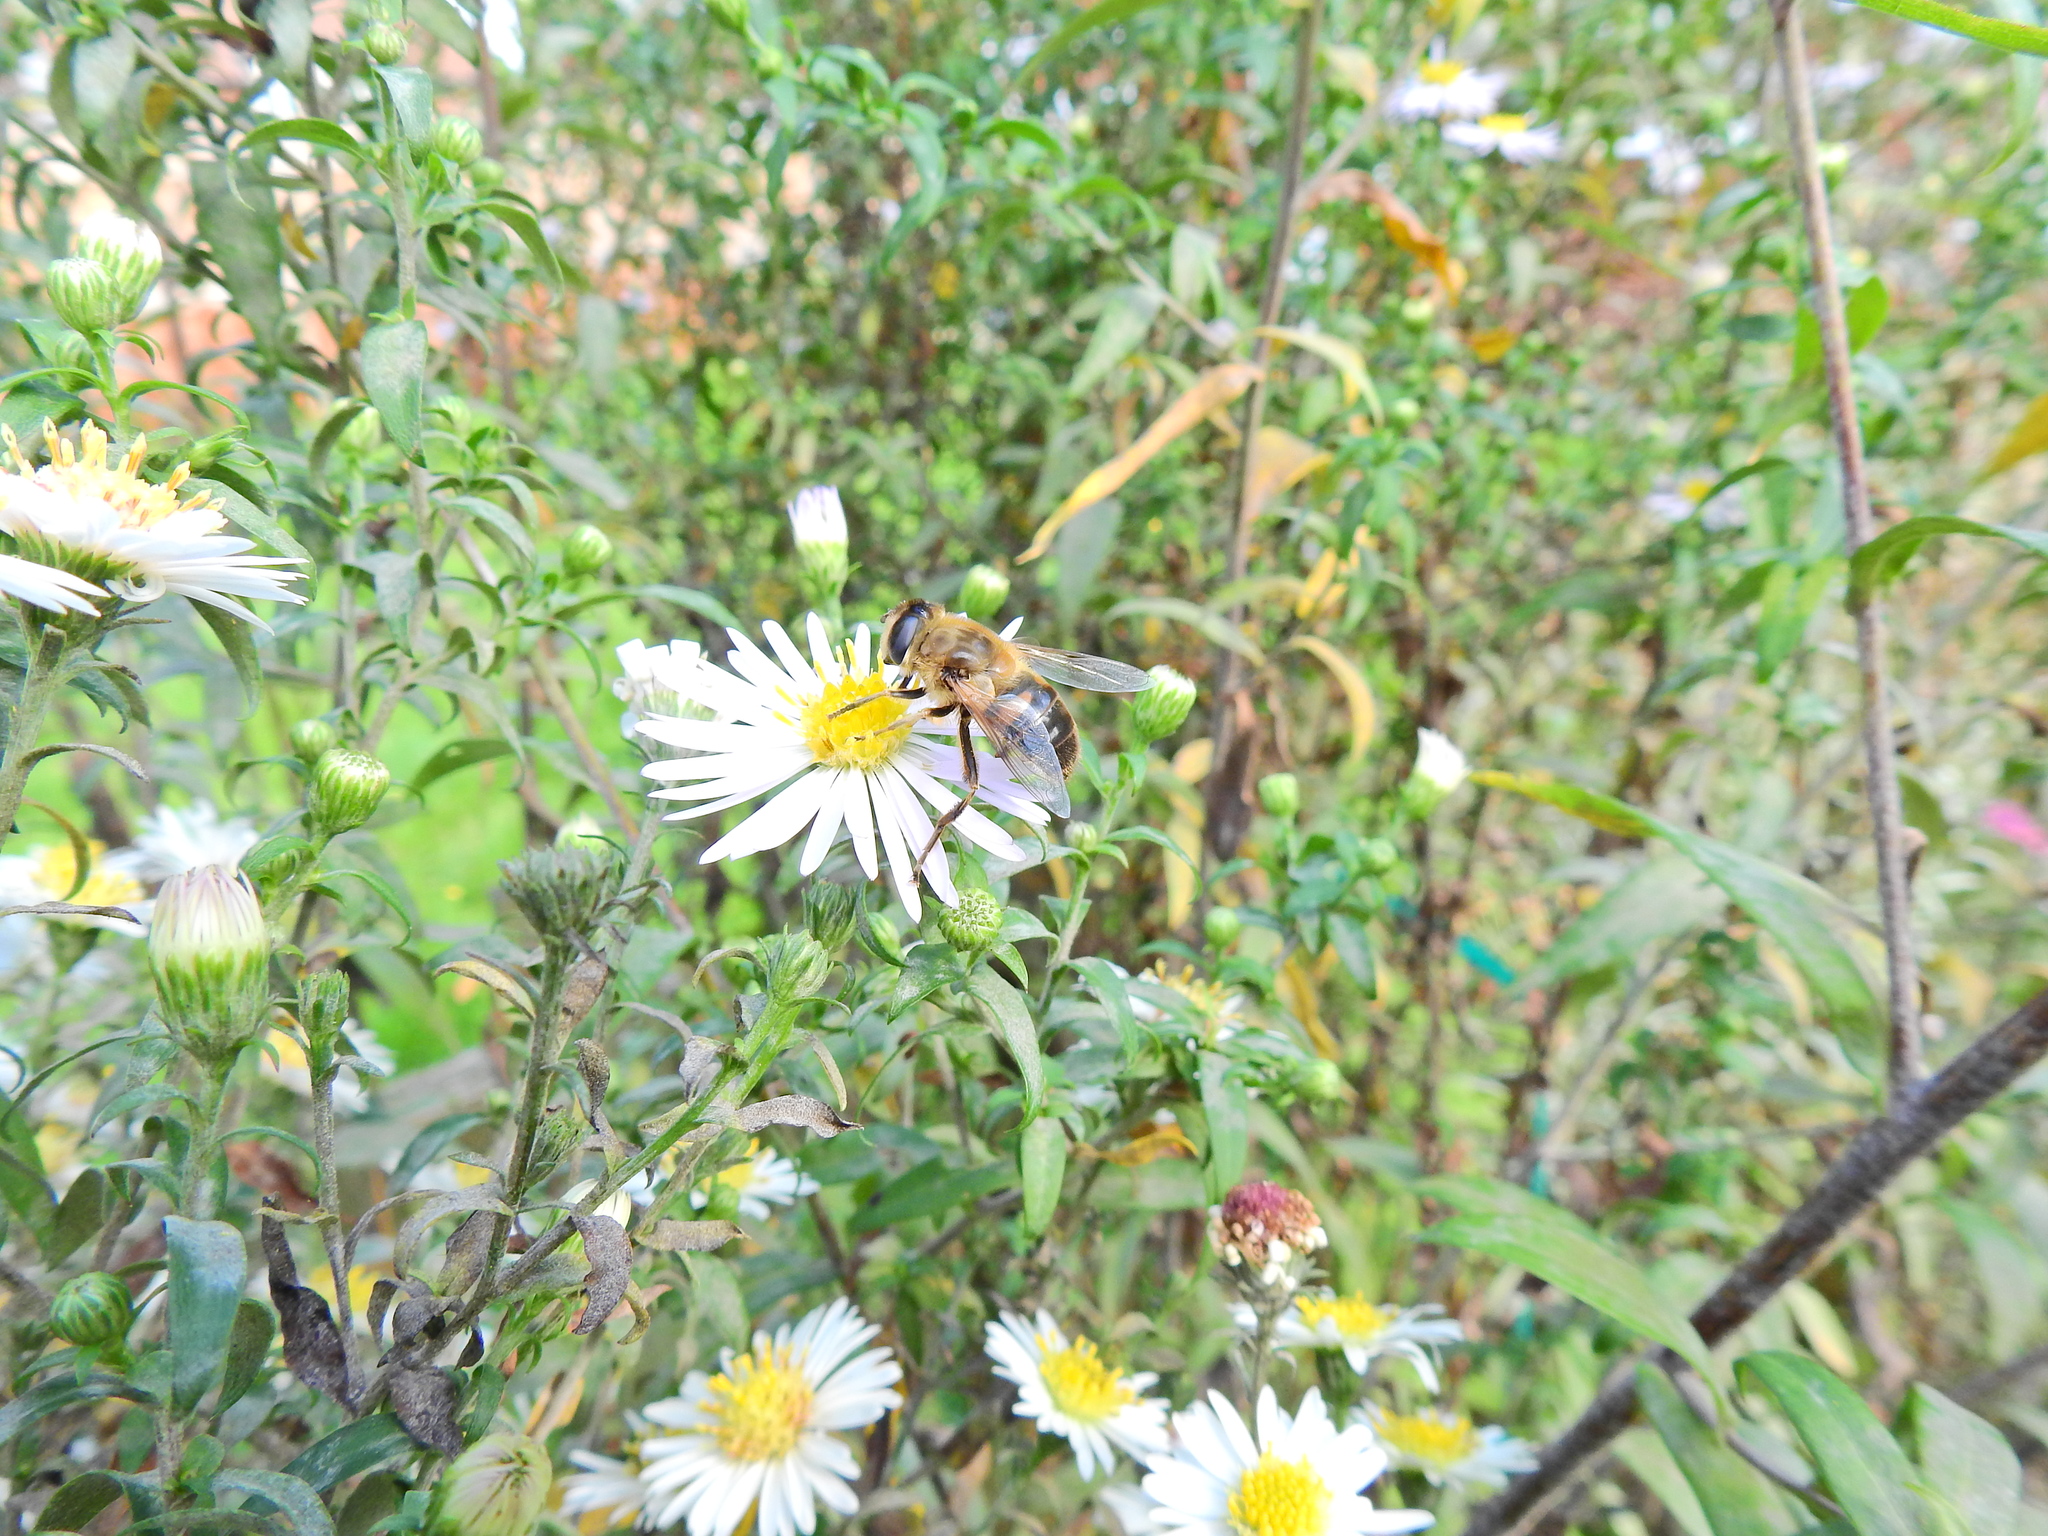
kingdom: Animalia
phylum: Arthropoda
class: Insecta
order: Diptera
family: Syrphidae
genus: Eristalis
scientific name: Eristalis tenax
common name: Drone fly
